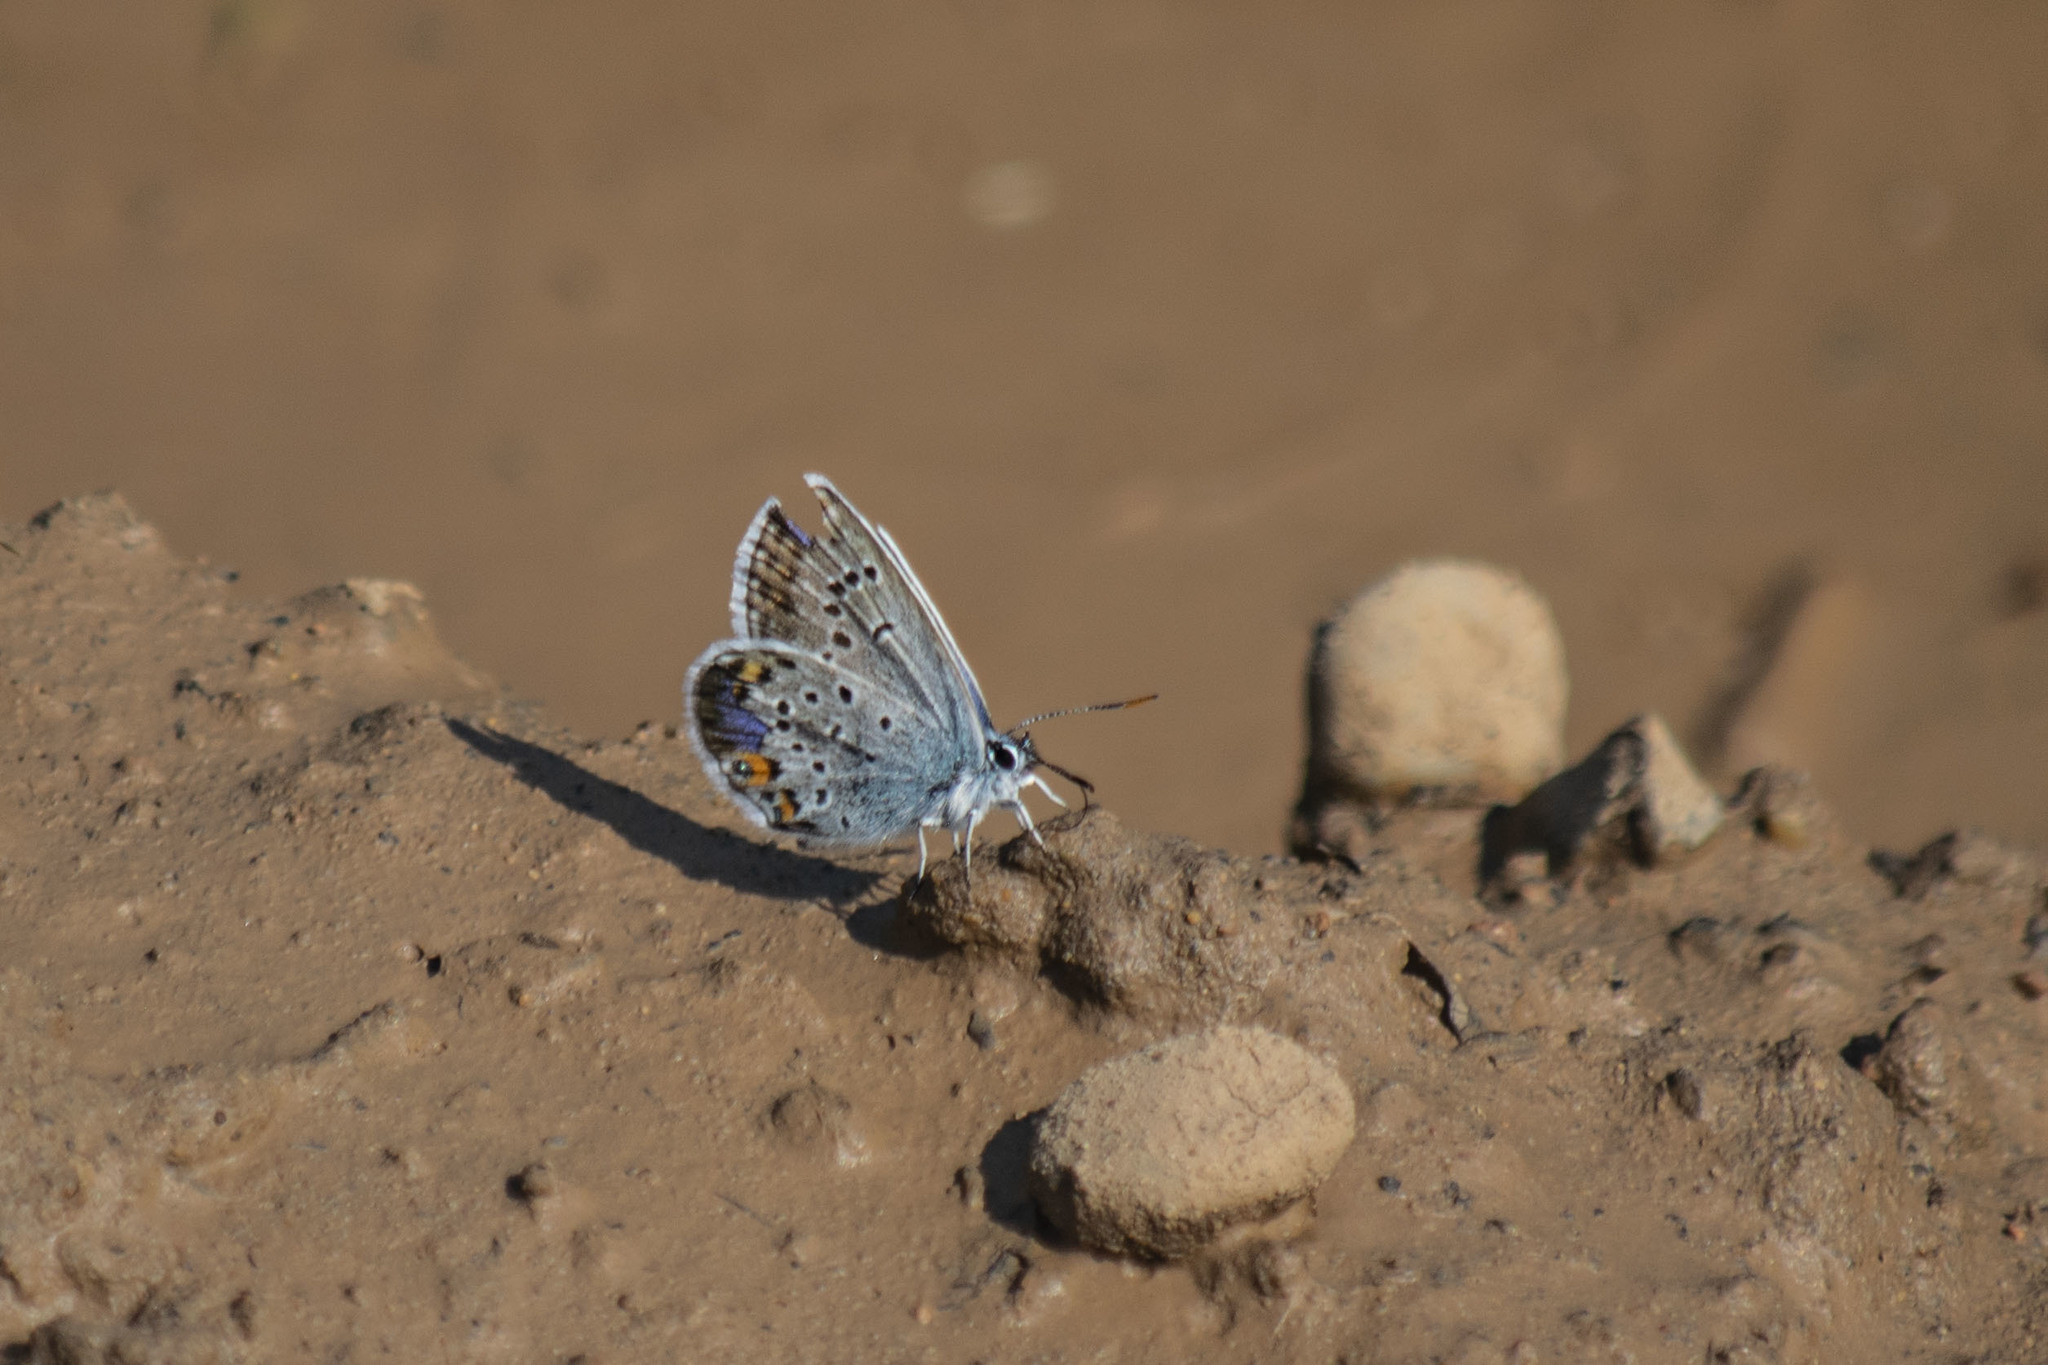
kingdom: Animalia
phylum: Arthropoda
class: Insecta
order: Lepidoptera
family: Lycaenidae
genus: Plebejus
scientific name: Plebejus argus
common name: Silver-studded blue
